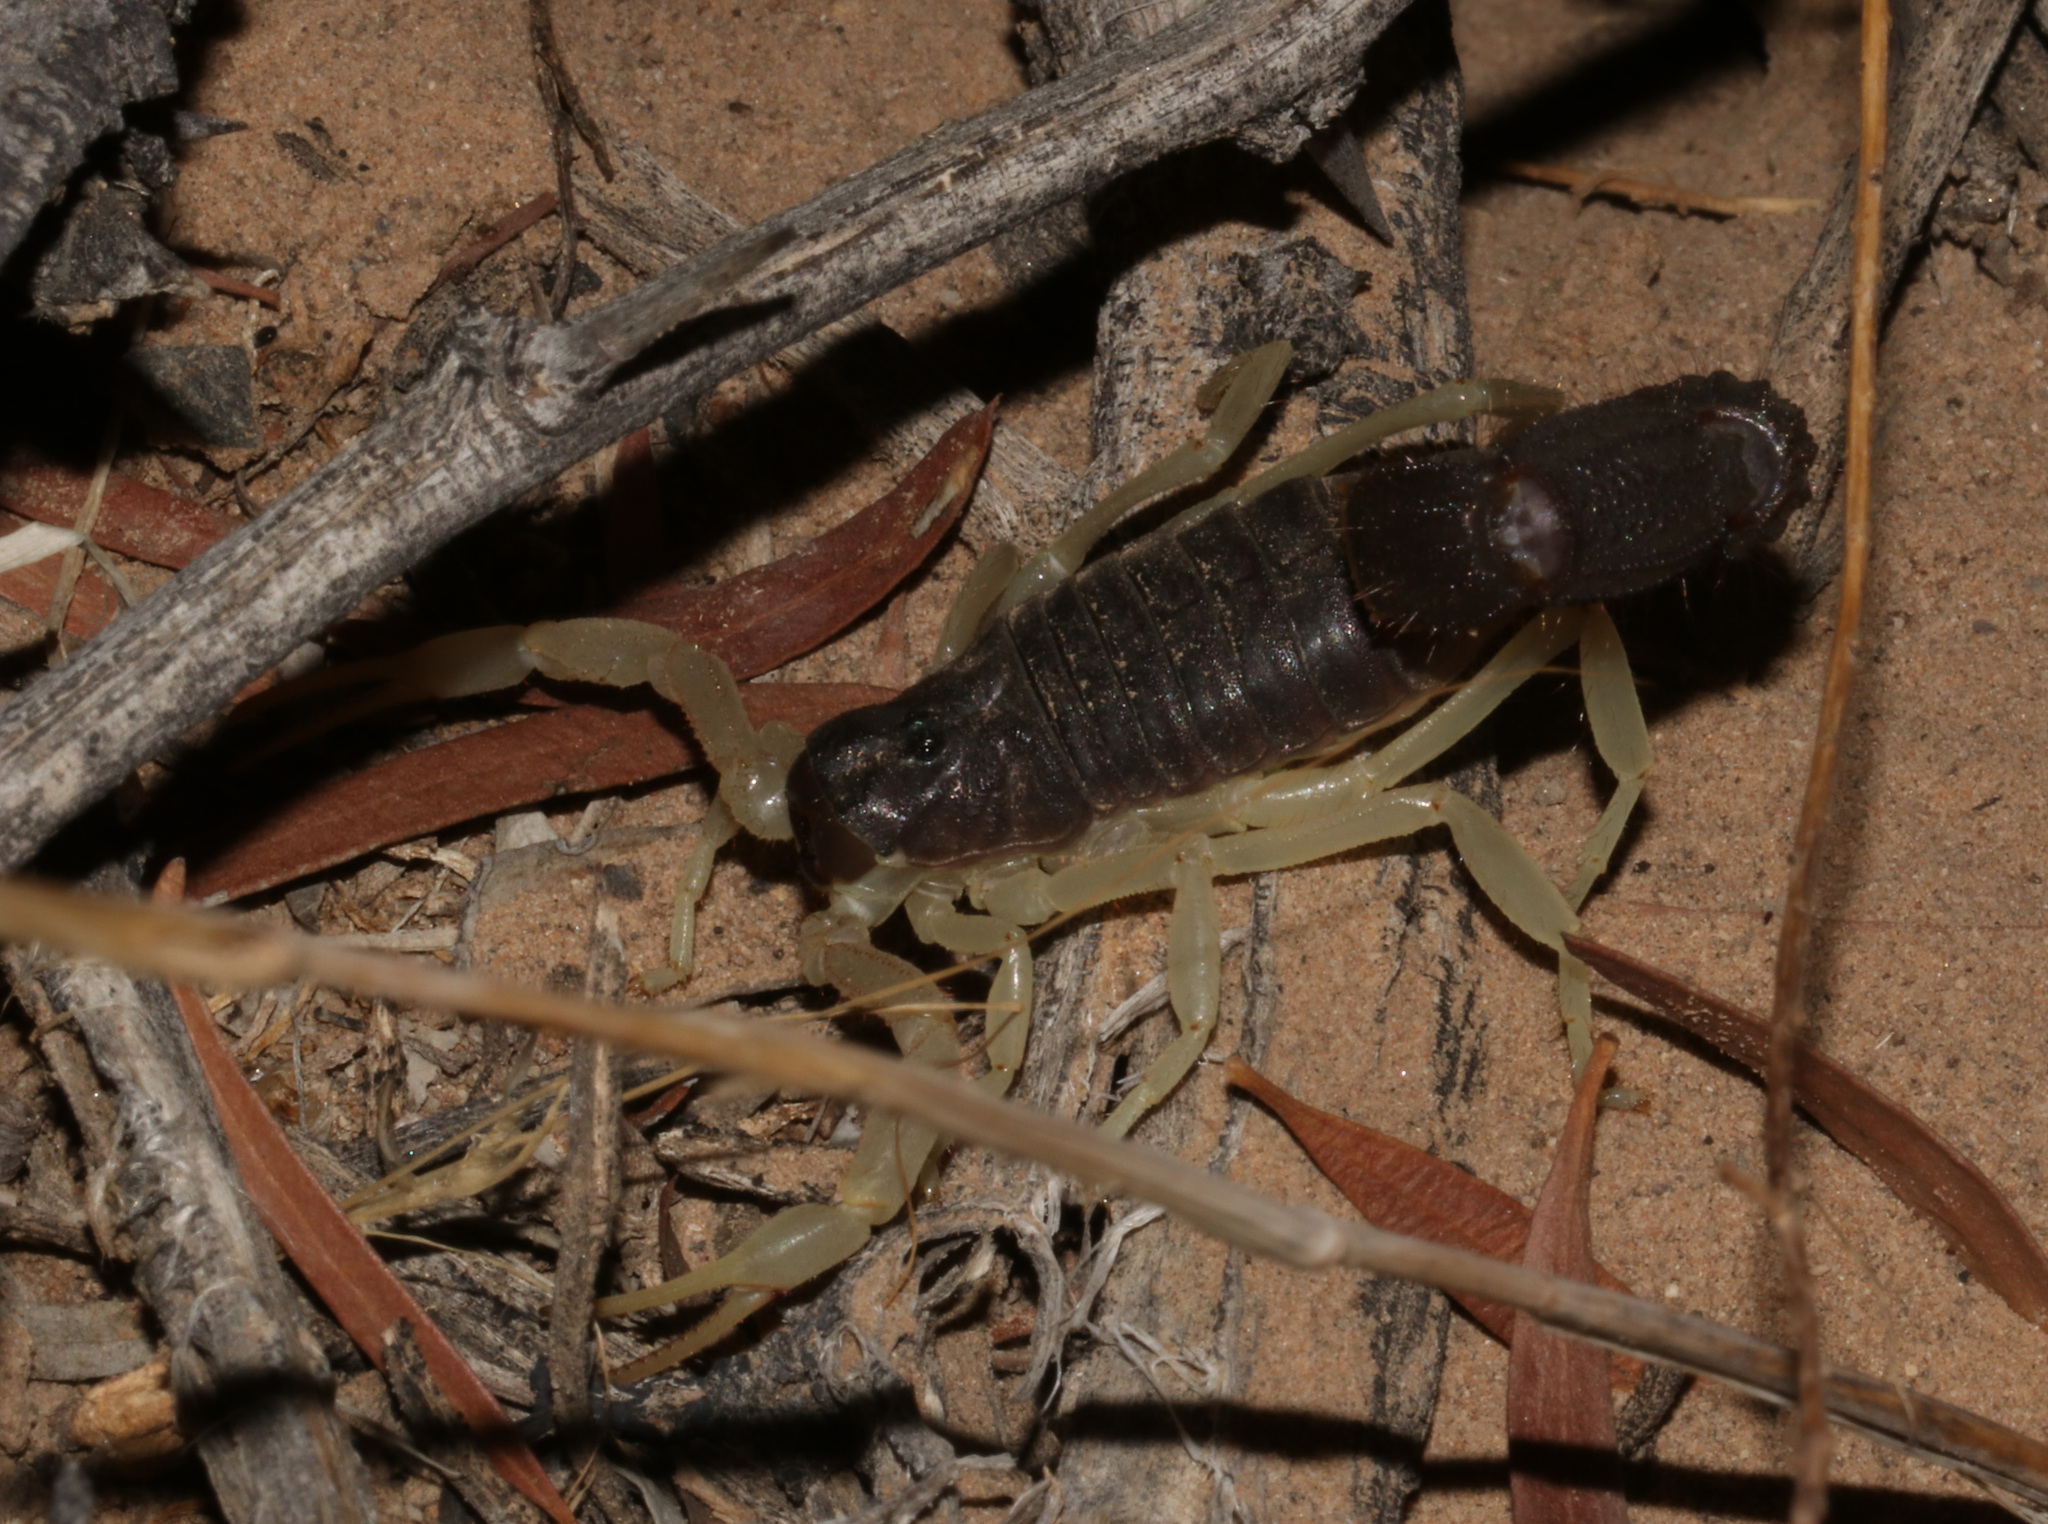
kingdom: Animalia
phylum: Arthropoda
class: Arachnida
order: Scorpiones
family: Buthidae
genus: Parabuthus
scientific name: Parabuthus schlechteri
